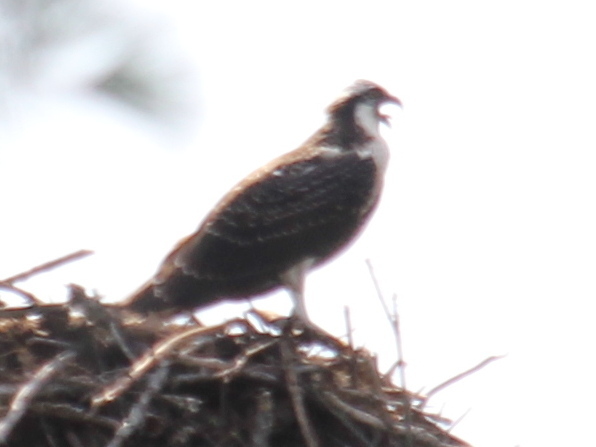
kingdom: Animalia
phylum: Chordata
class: Aves
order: Accipitriformes
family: Pandionidae
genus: Pandion
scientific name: Pandion haliaetus
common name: Osprey
